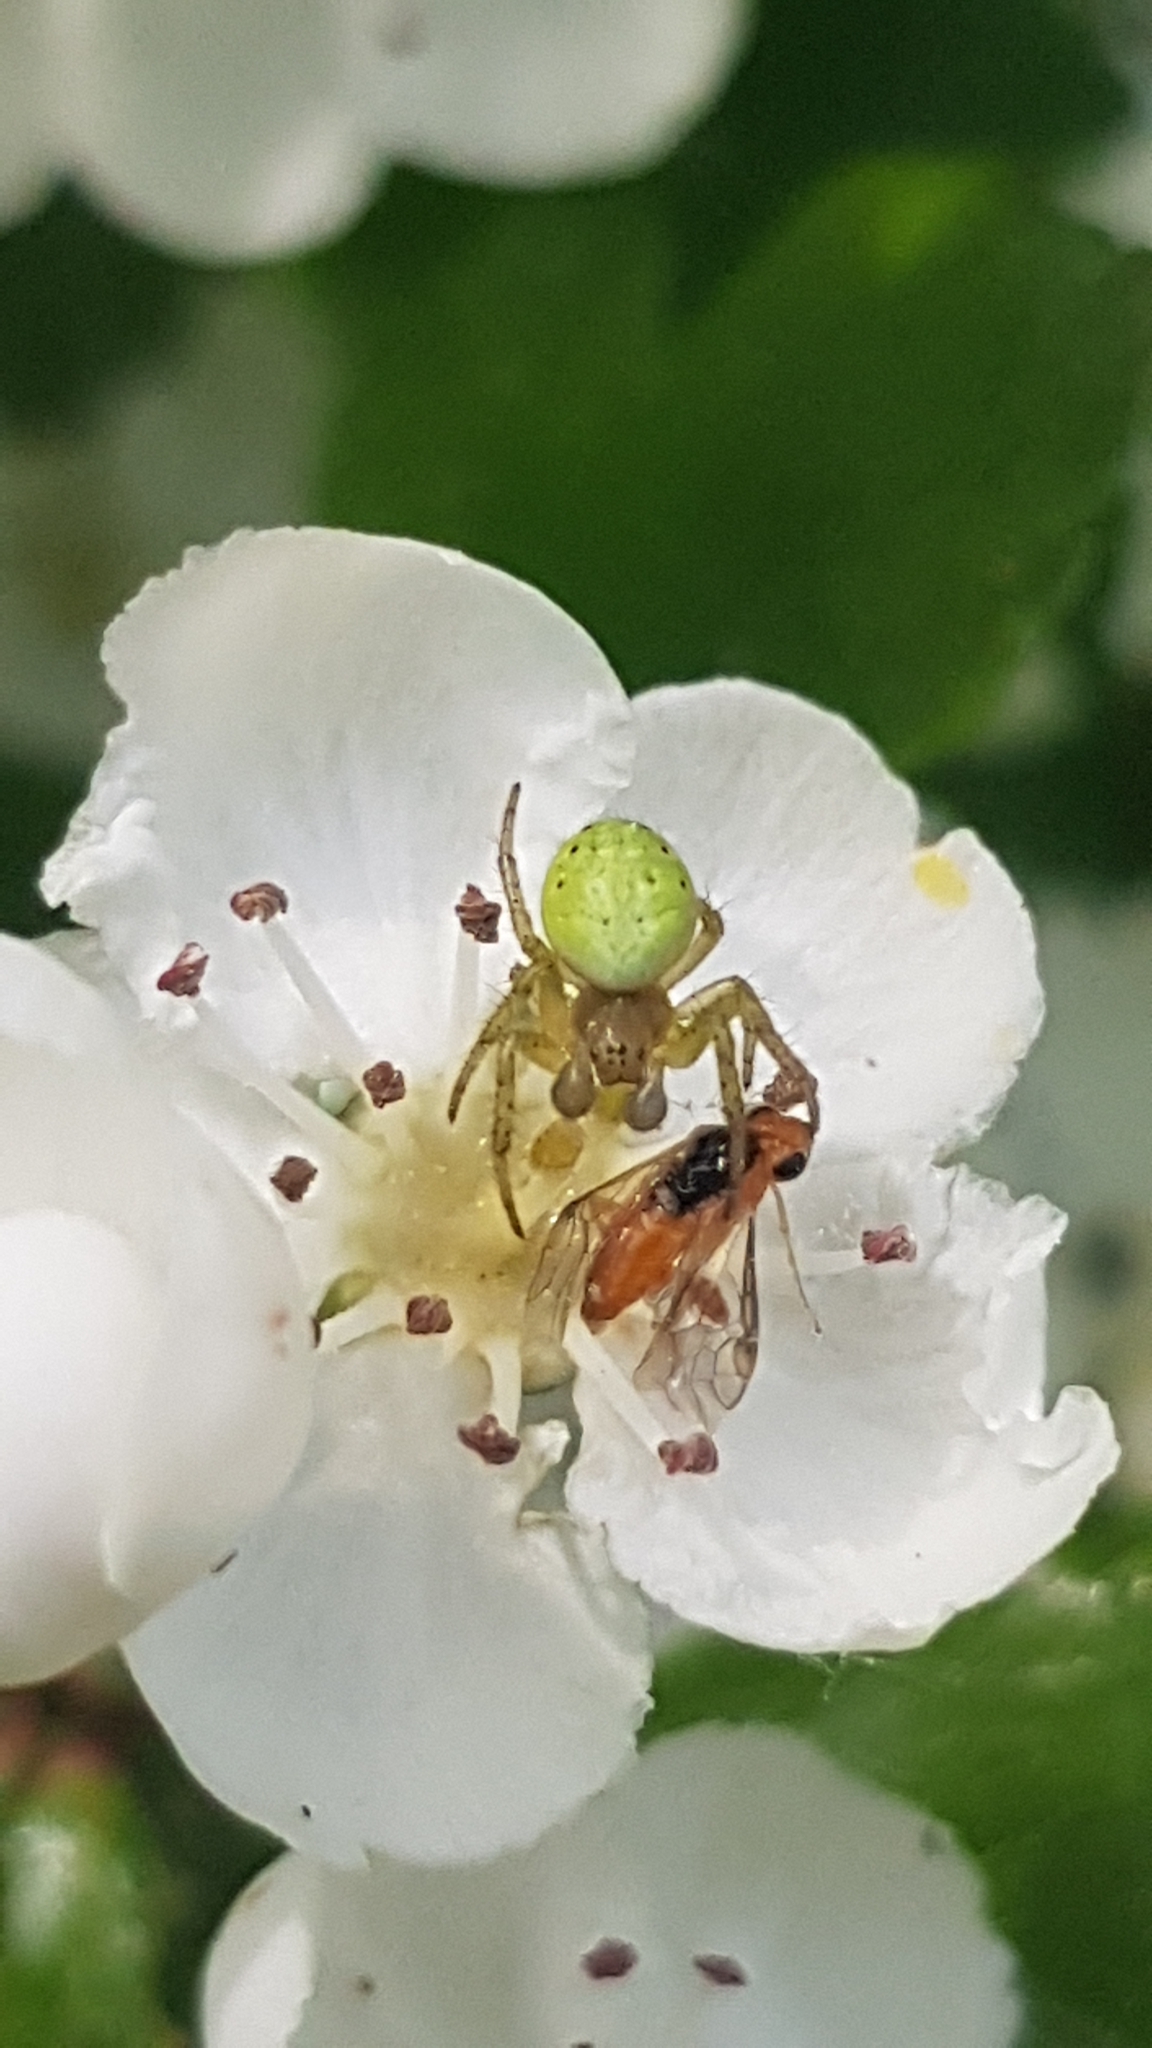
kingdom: Animalia
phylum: Arthropoda
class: Arachnida
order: Araneae
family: Araneidae
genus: Araniella
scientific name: Araniella cucurbitina
